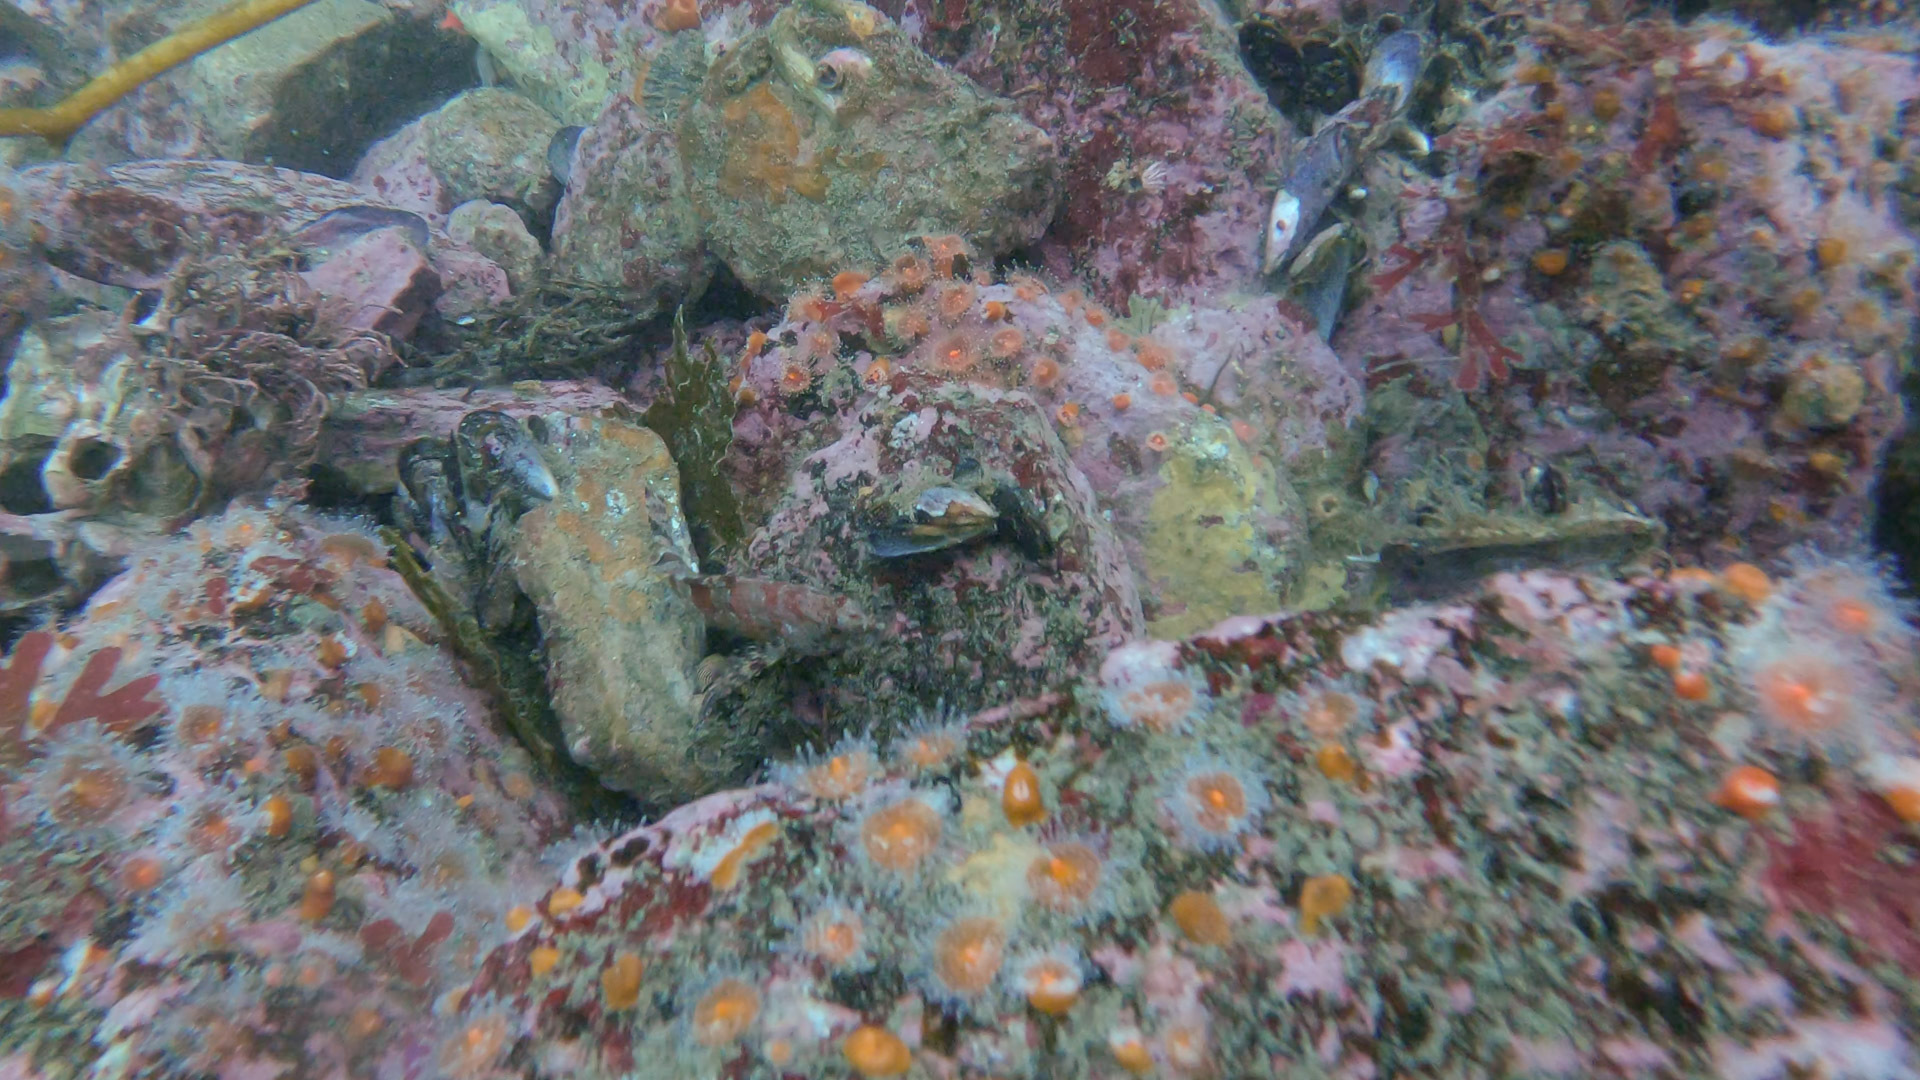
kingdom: Animalia
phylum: Chordata
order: Scorpaeniformes
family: Hexagrammidae
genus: Oxylebius
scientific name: Oxylebius pictus
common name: Painted greenling
